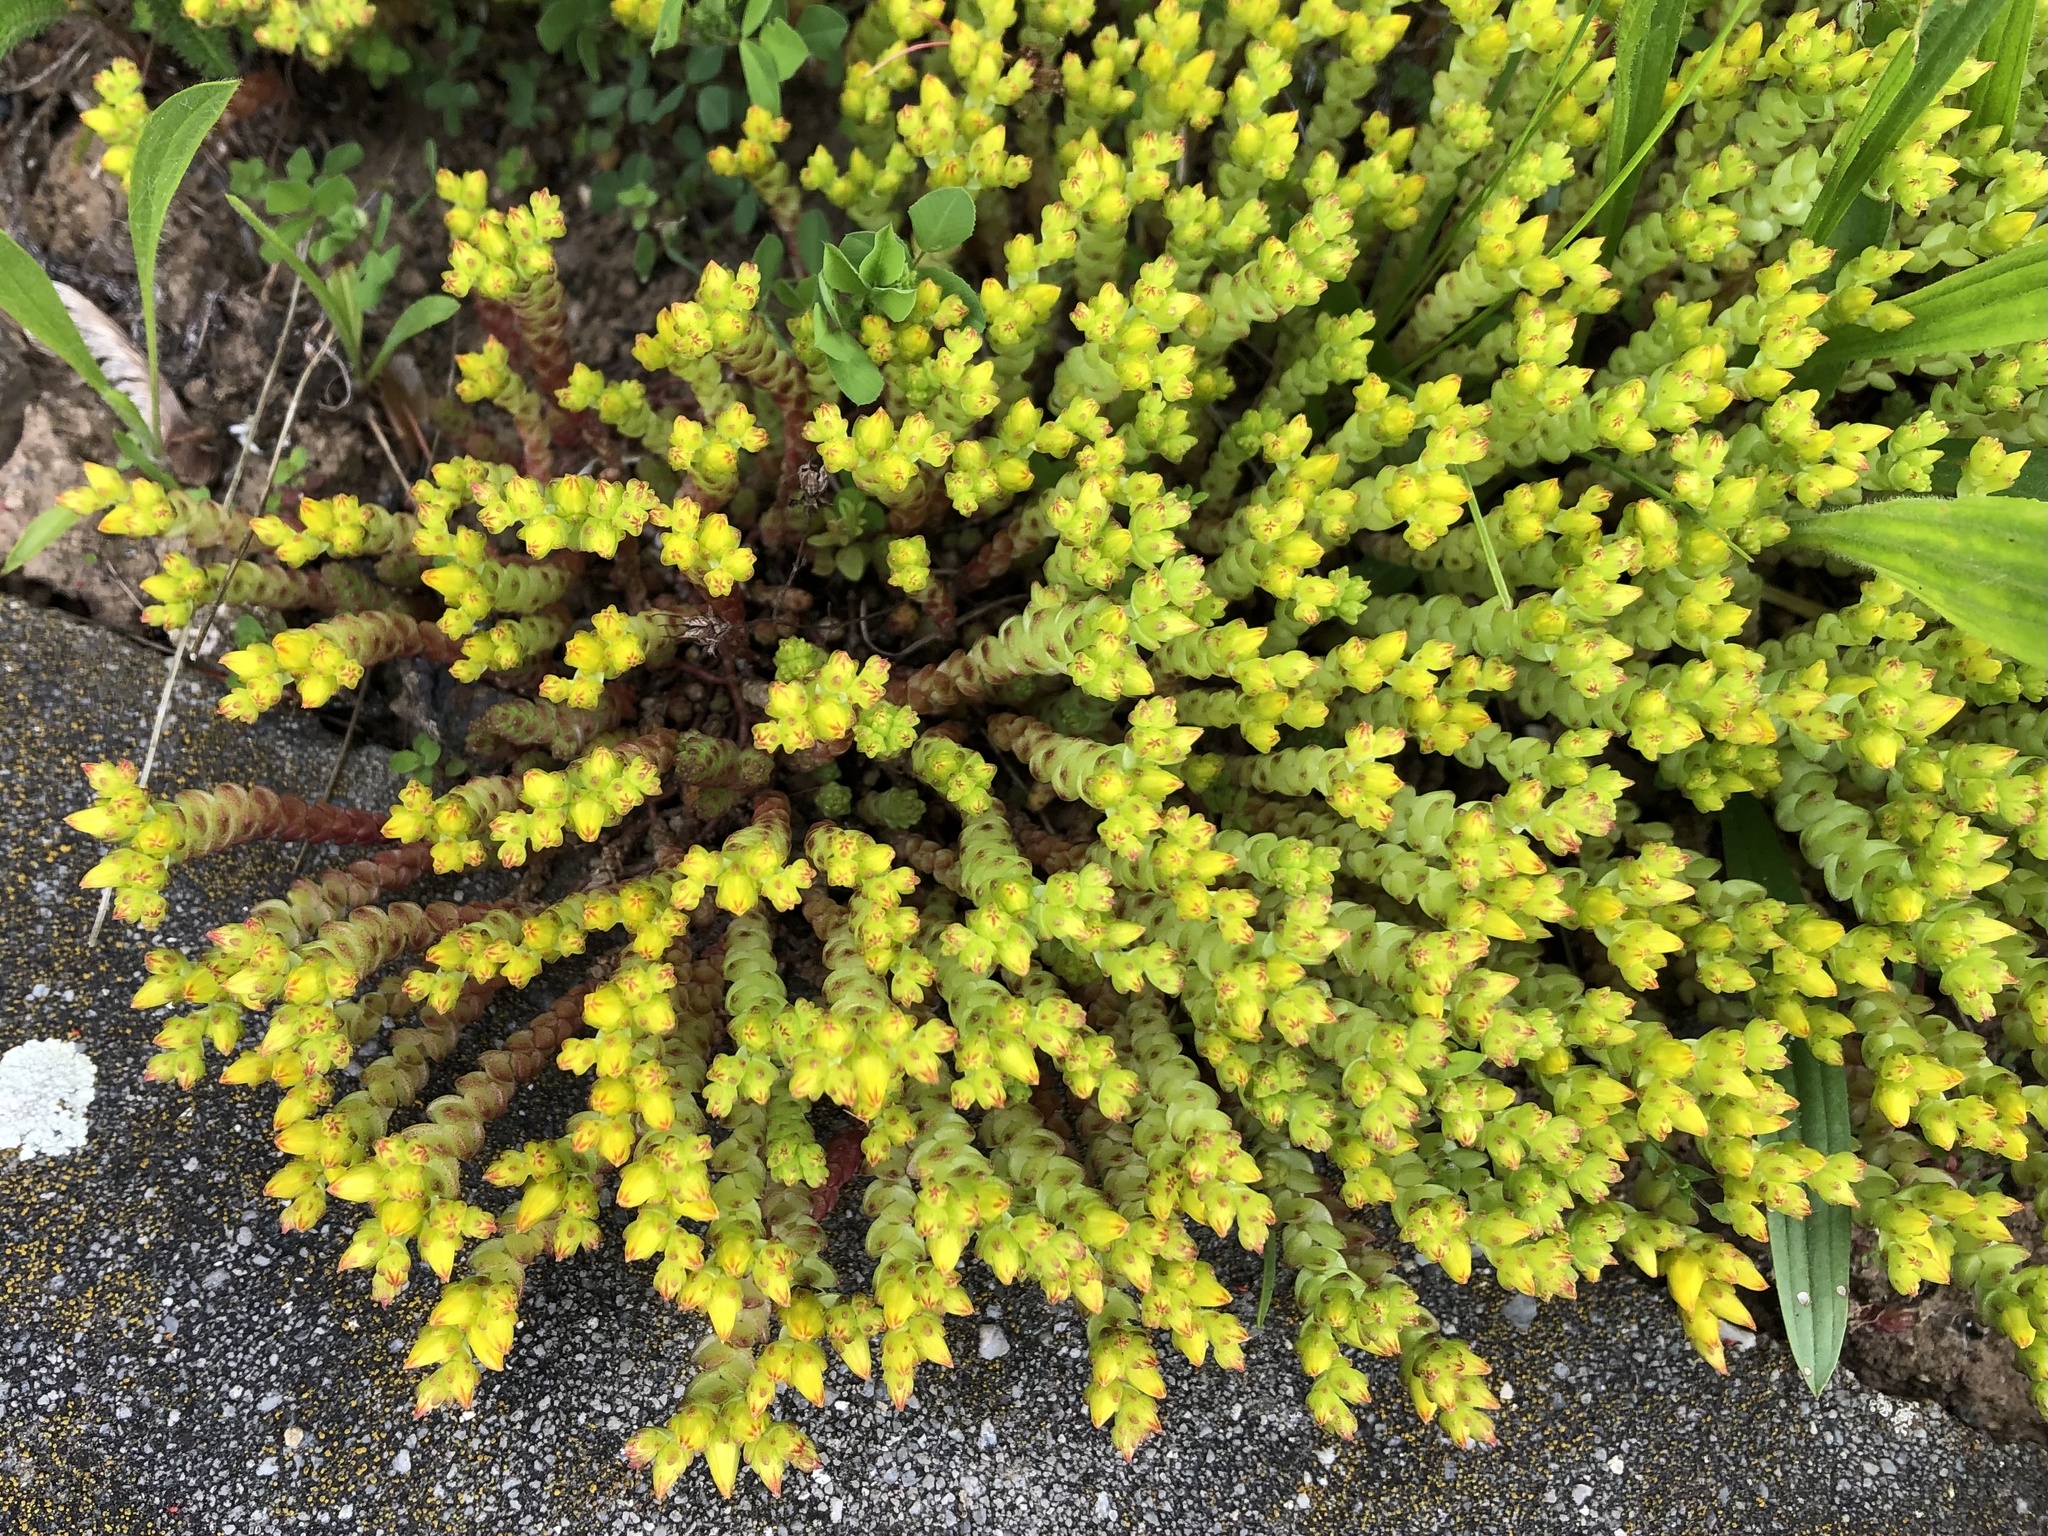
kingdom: Plantae
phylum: Tracheophyta
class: Magnoliopsida
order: Saxifragales
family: Crassulaceae
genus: Sedum
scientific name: Sedum acre
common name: Biting stonecrop
